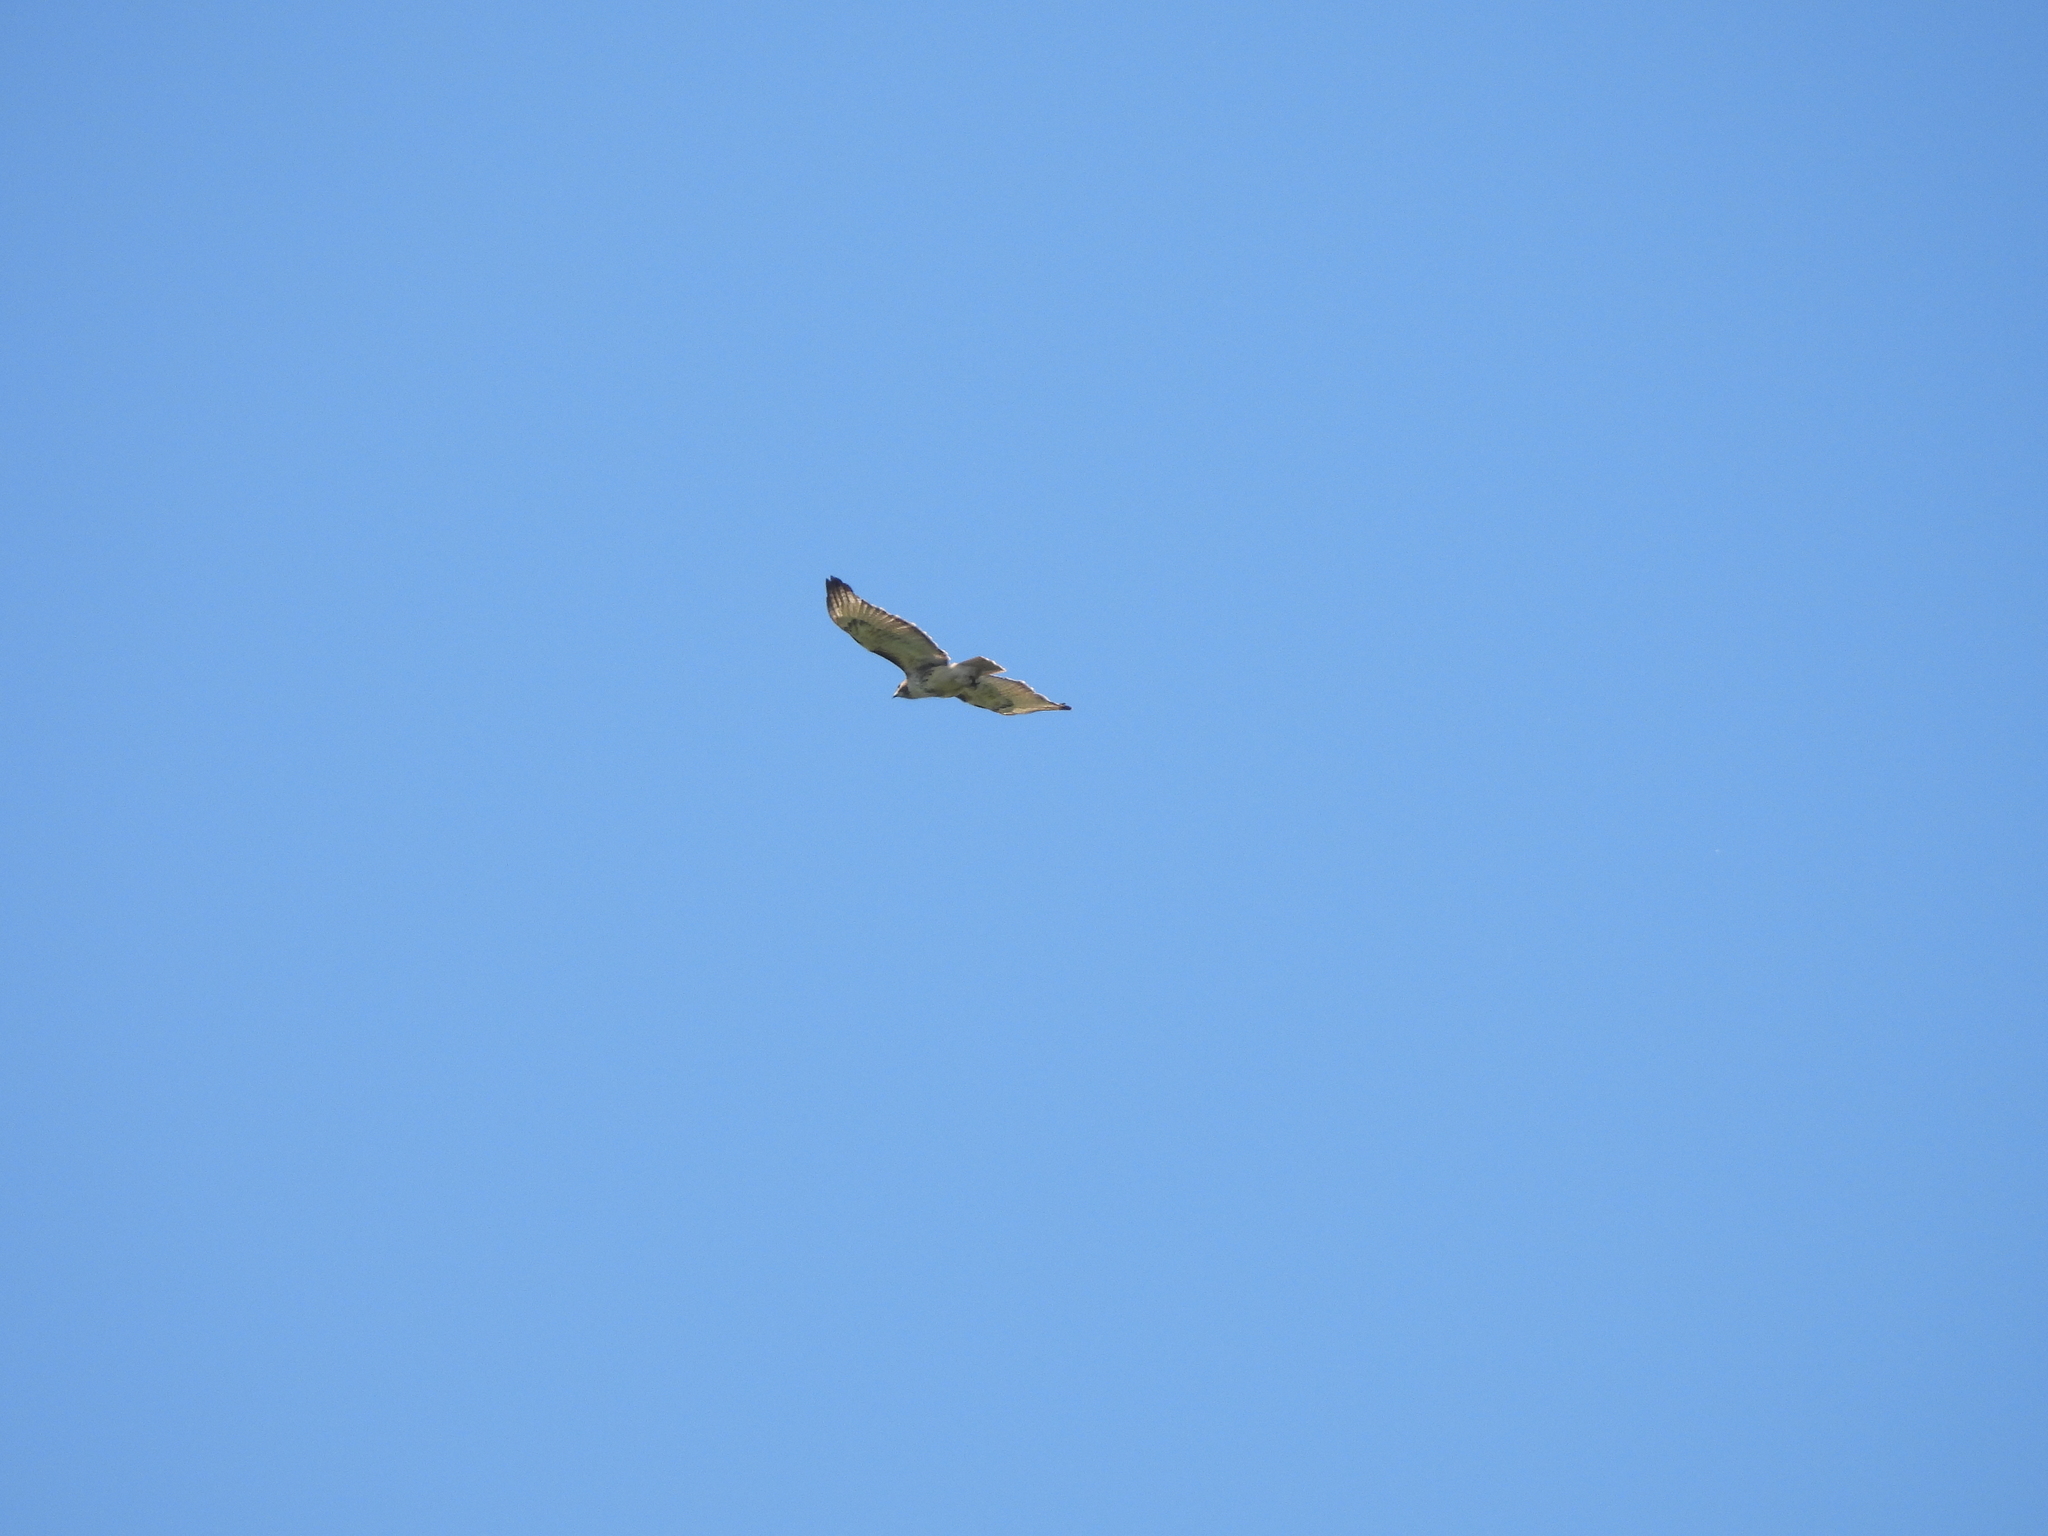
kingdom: Animalia
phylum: Chordata
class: Aves
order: Accipitriformes
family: Accipitridae
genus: Buteo
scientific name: Buteo jamaicensis
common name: Red-tailed hawk
